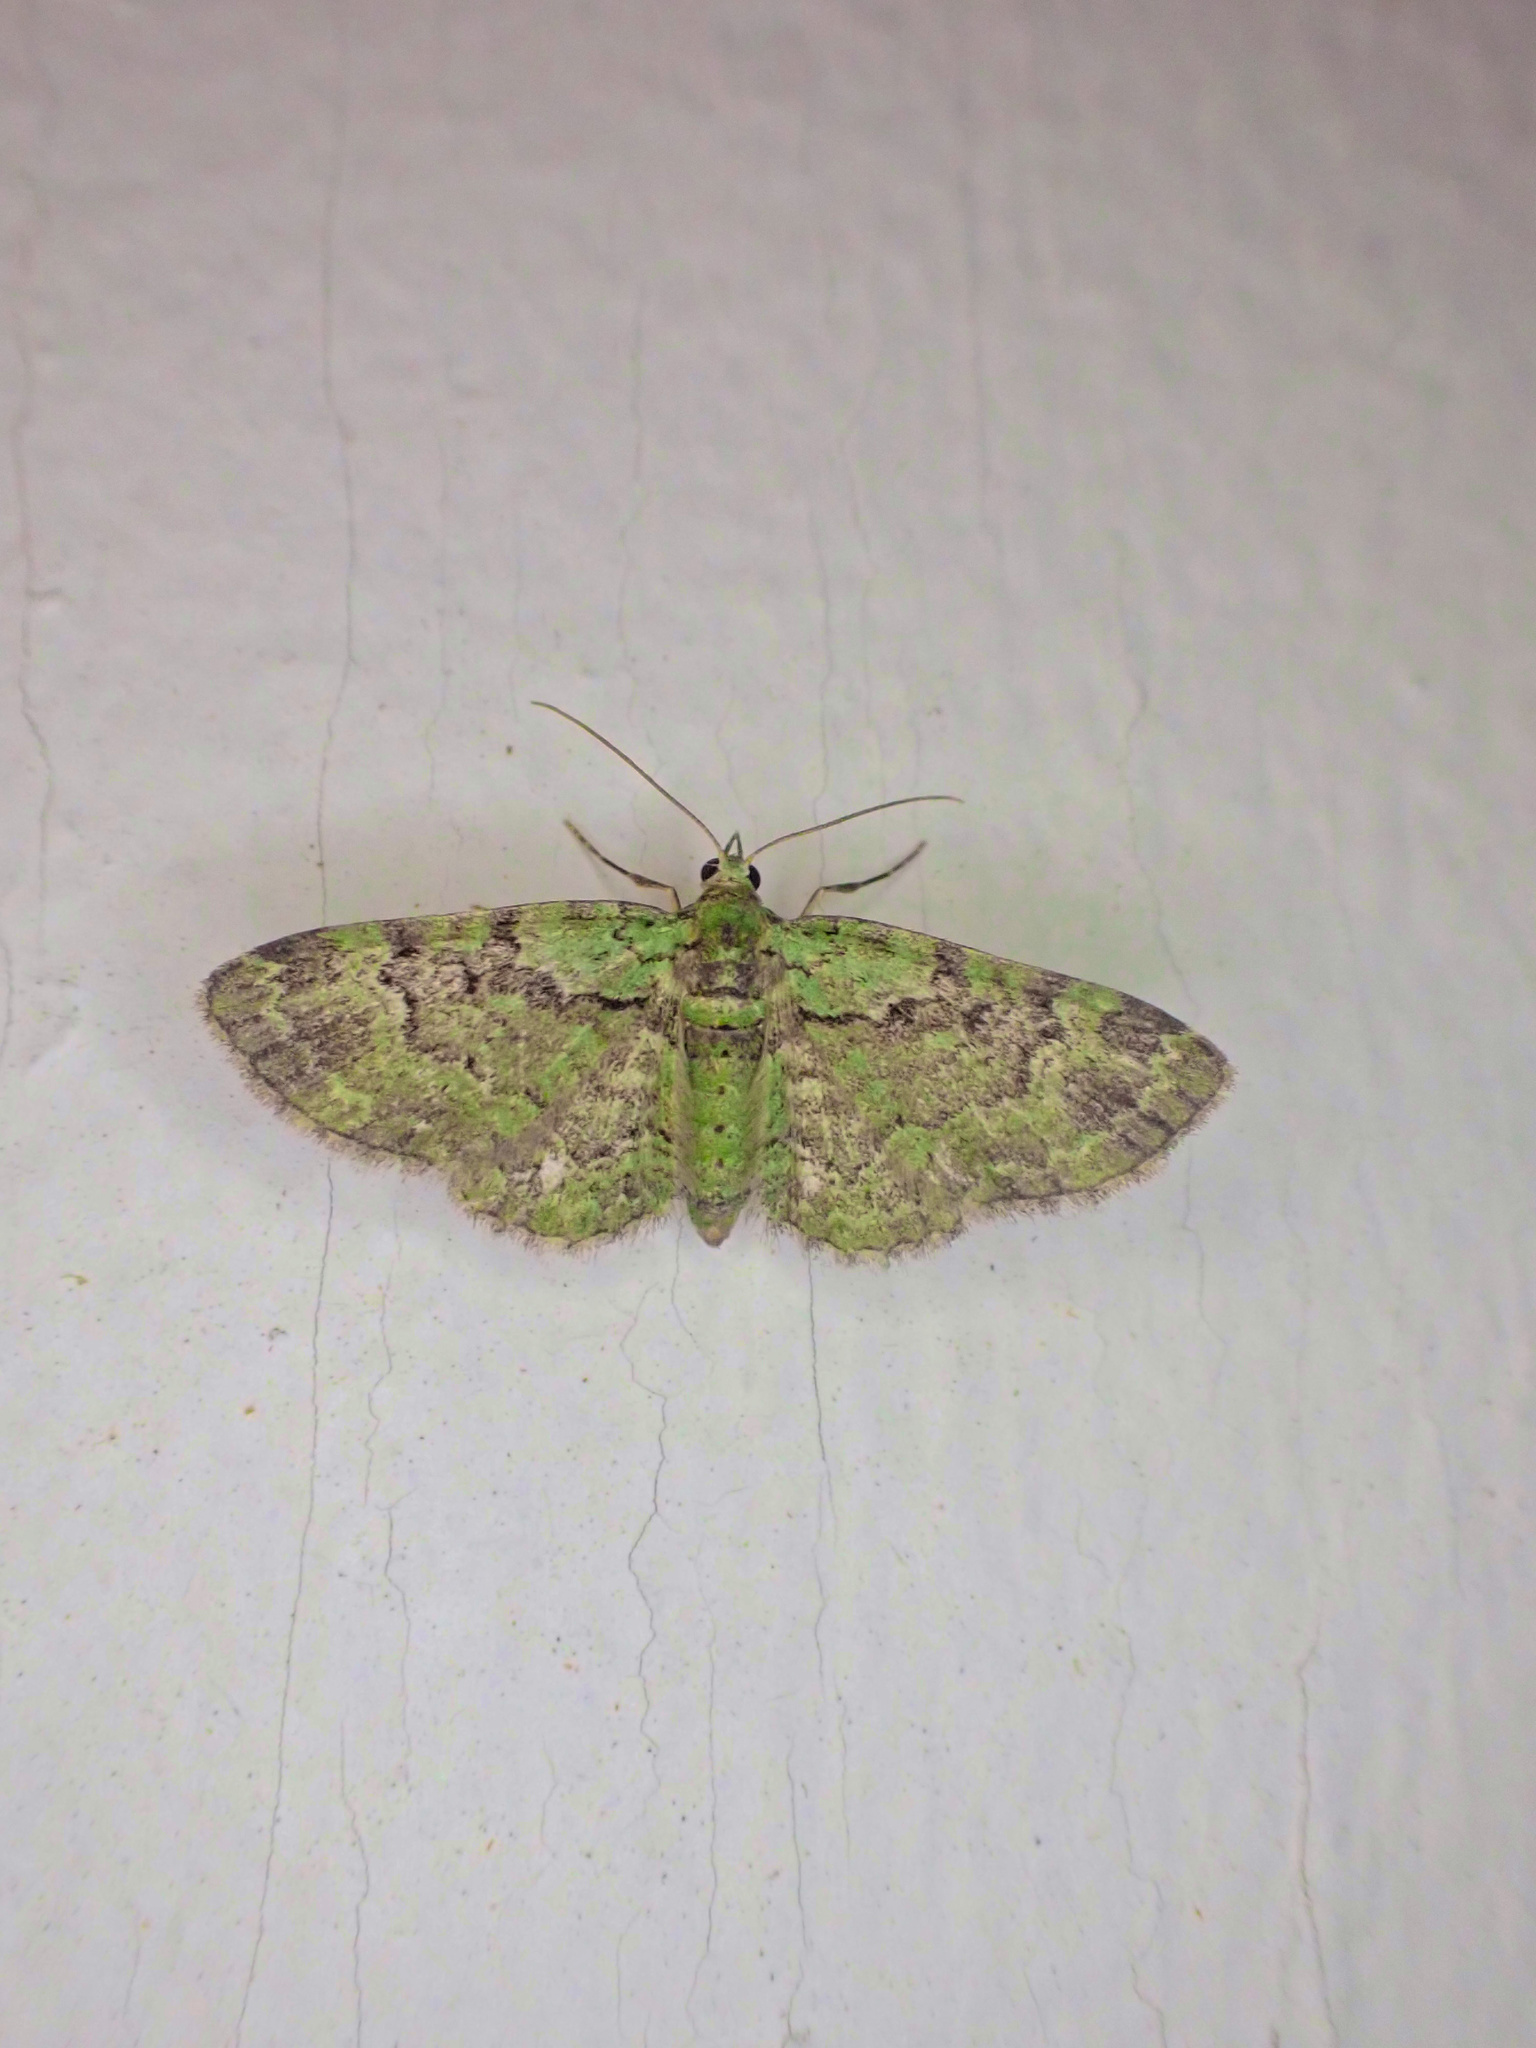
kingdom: Animalia
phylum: Arthropoda
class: Insecta
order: Lepidoptera
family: Geometridae
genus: Pasiphila
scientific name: Pasiphila rectangulata
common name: Green pug
